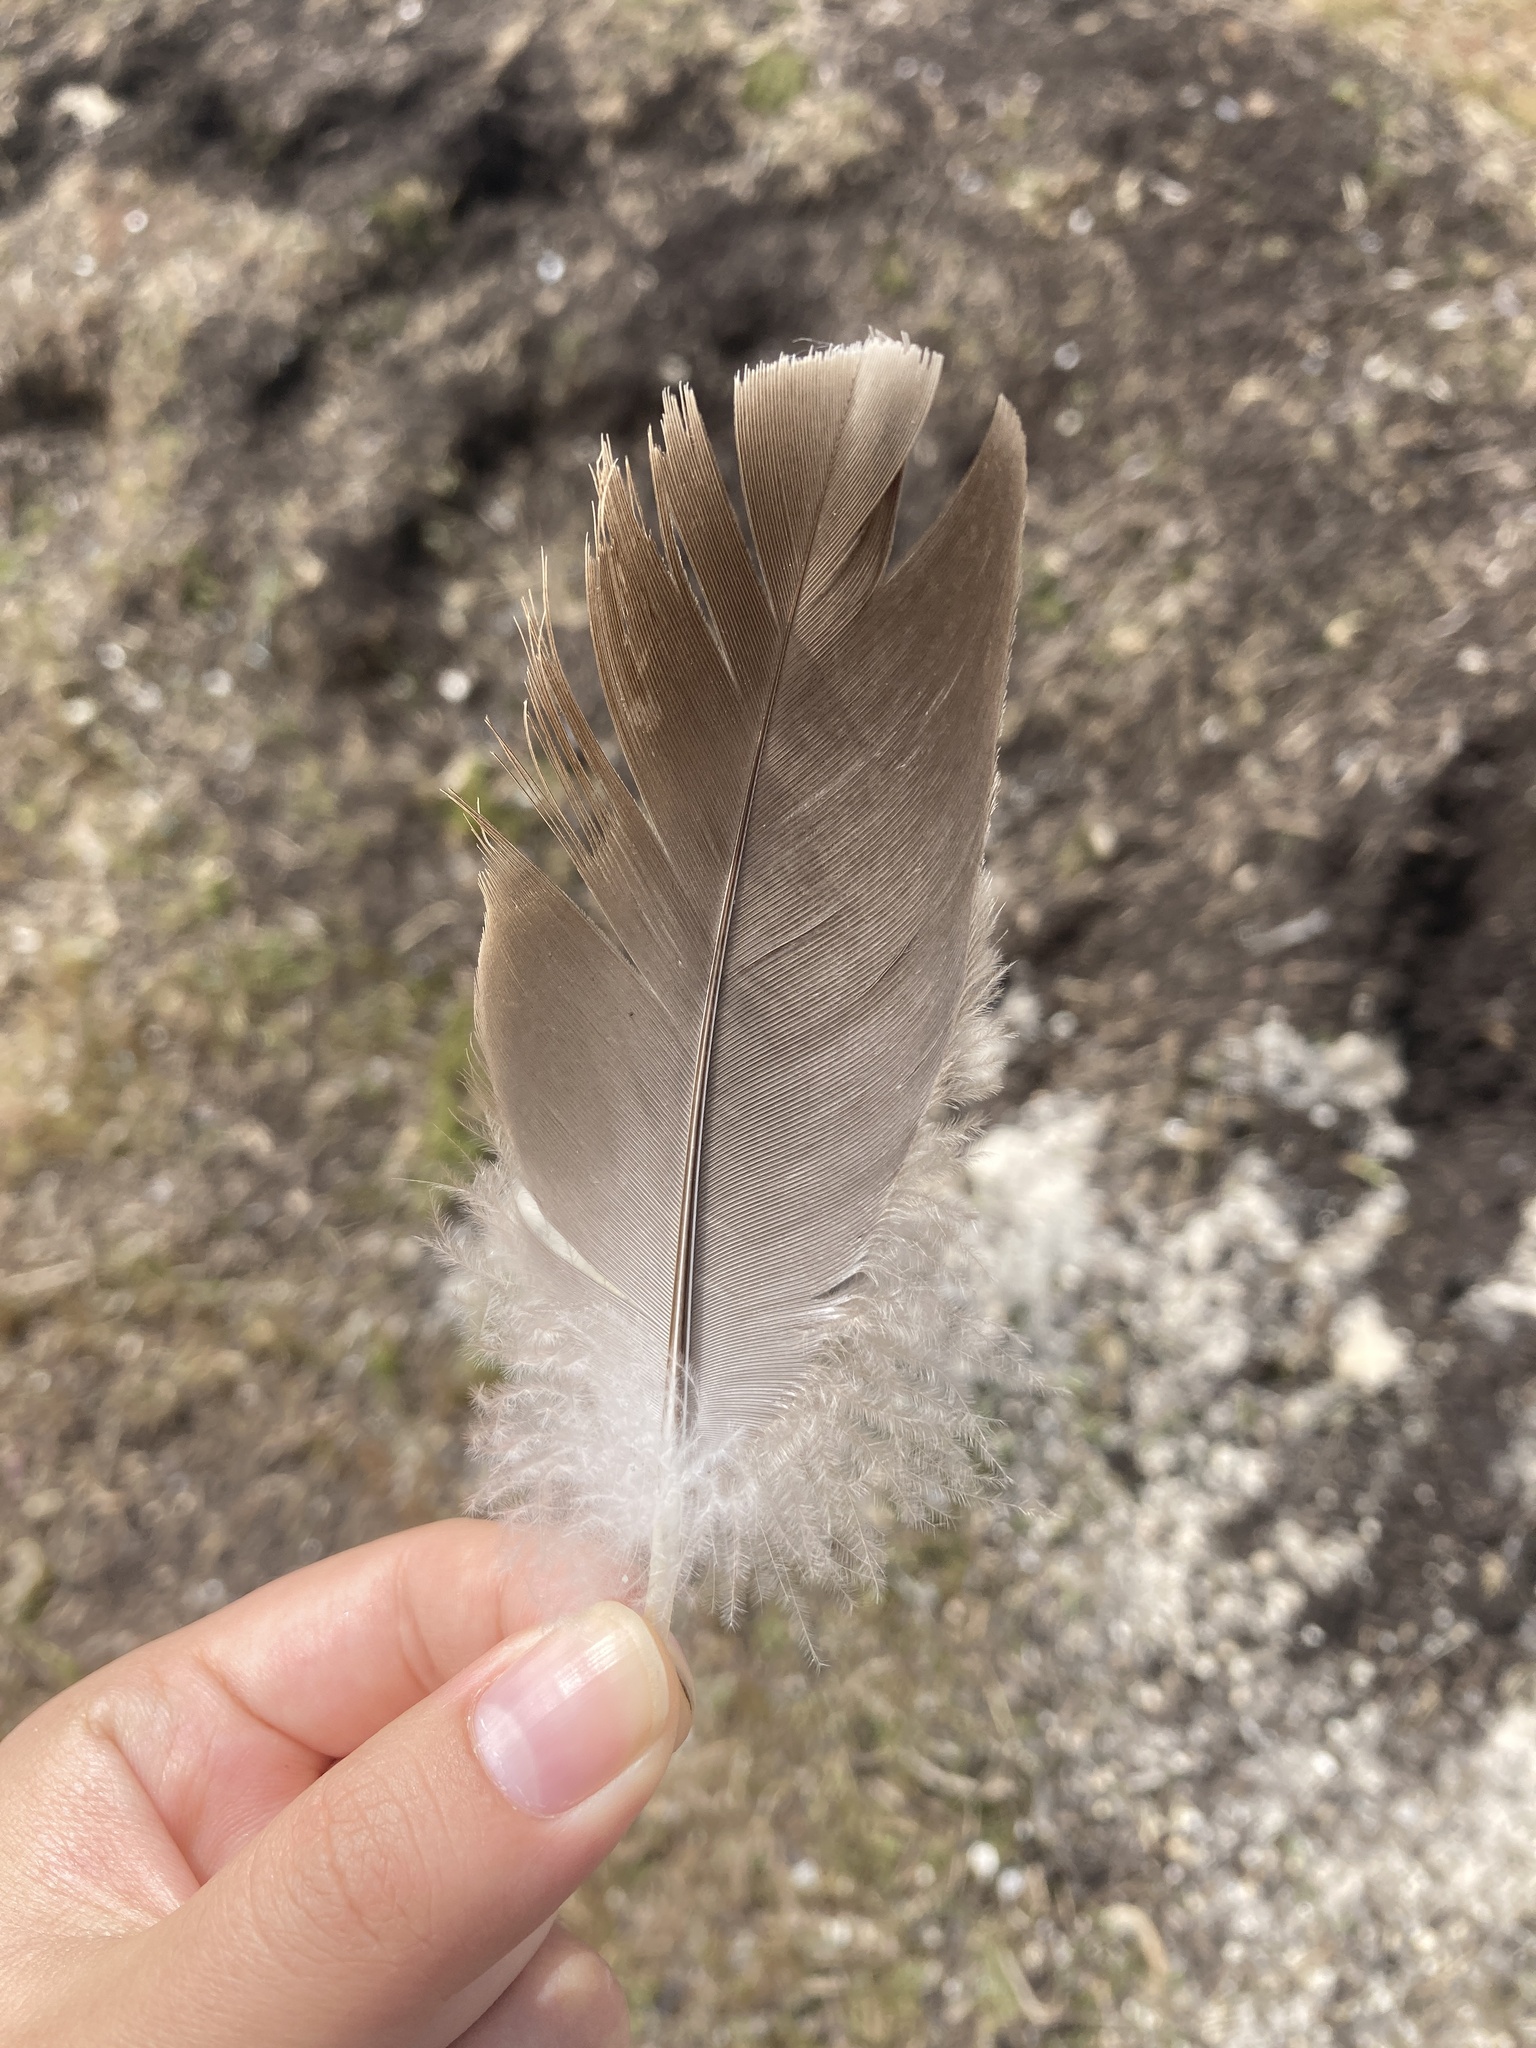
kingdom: Animalia
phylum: Chordata
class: Aves
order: Anseriformes
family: Anatidae
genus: Branta
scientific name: Branta canadensis
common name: Canada goose
